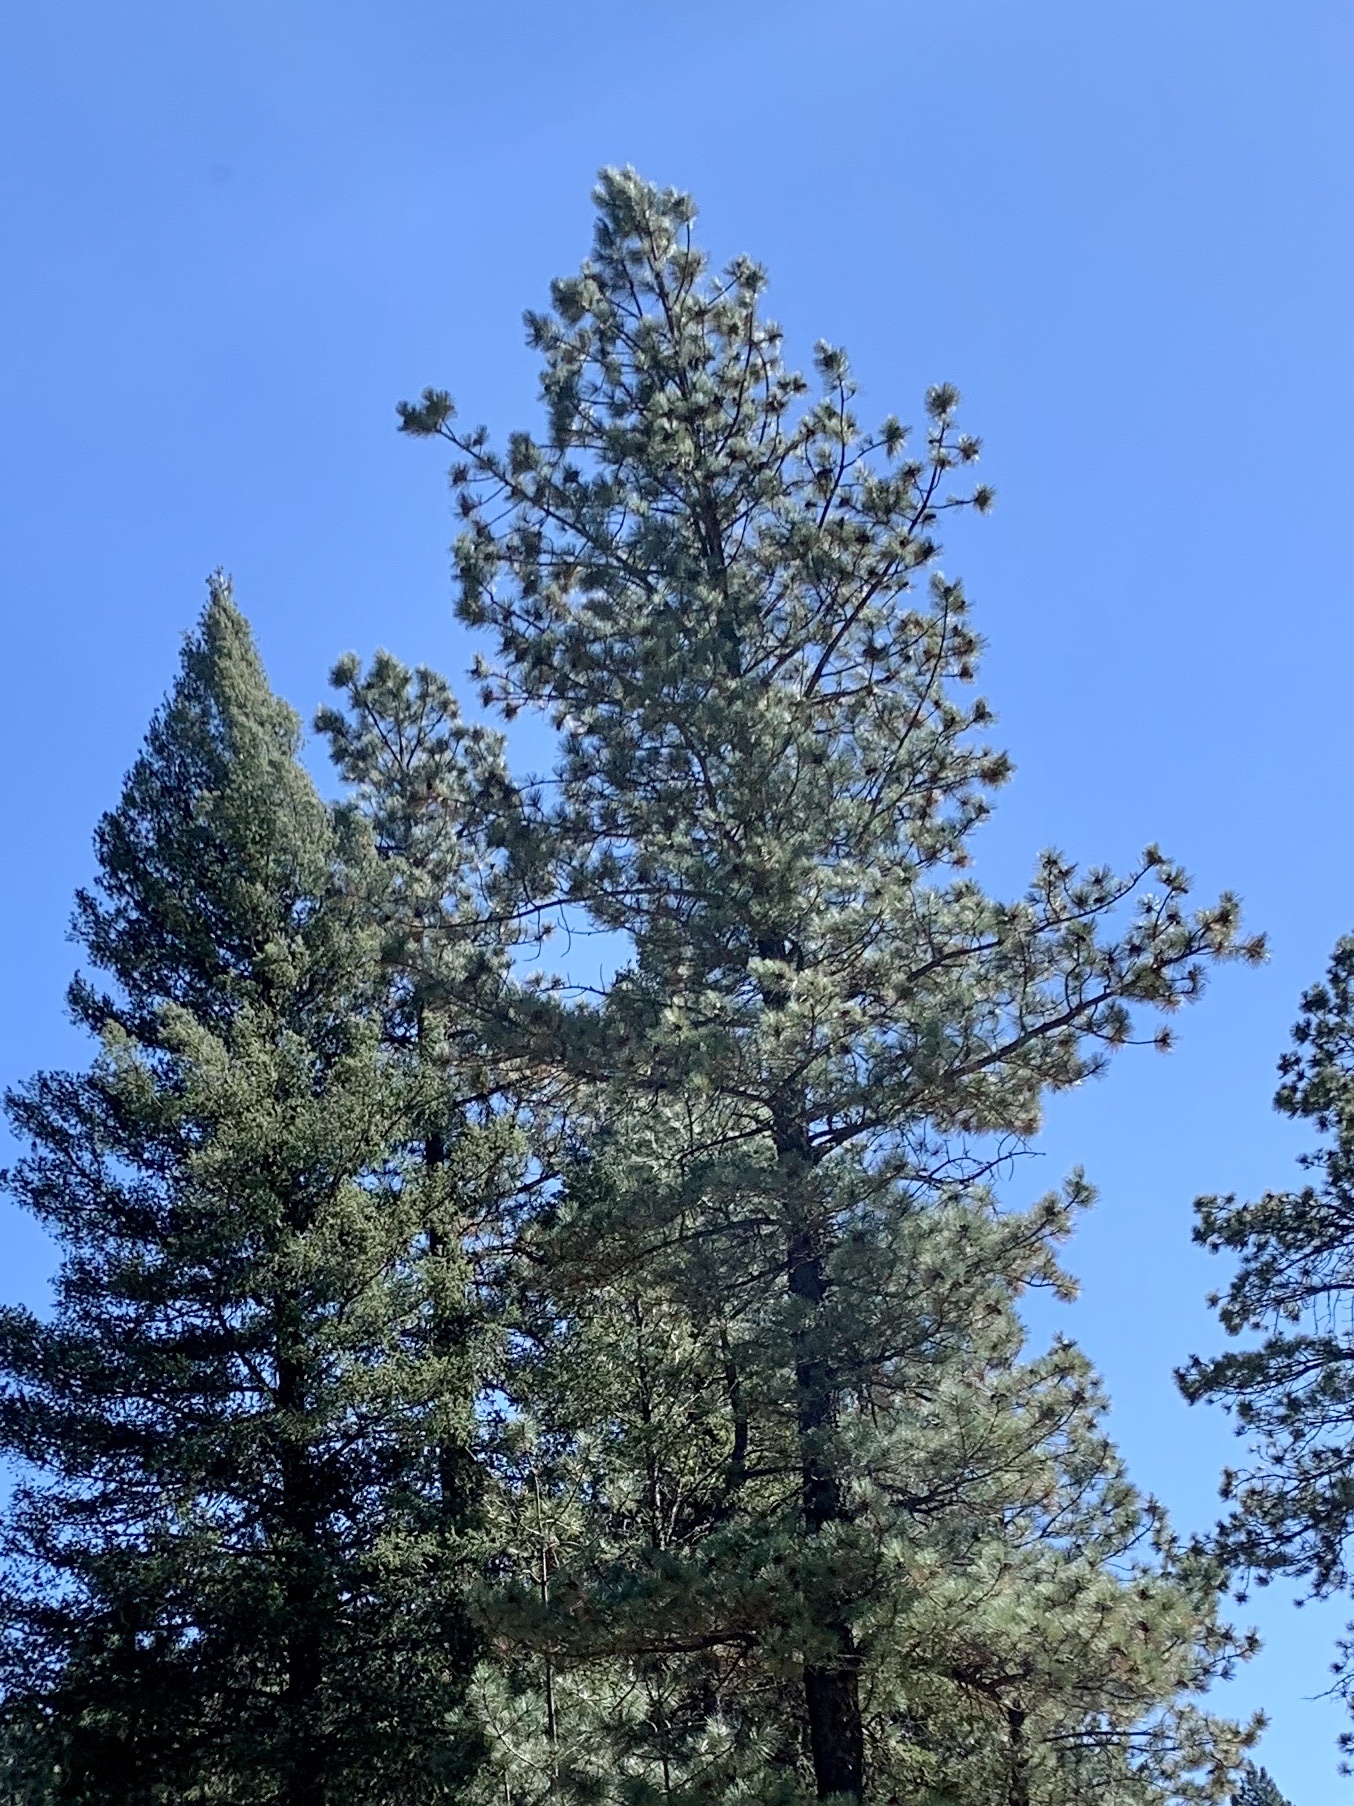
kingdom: Plantae
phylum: Tracheophyta
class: Pinopsida
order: Pinales
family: Pinaceae
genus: Pinus
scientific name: Pinus ponderosa
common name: Western yellow-pine
